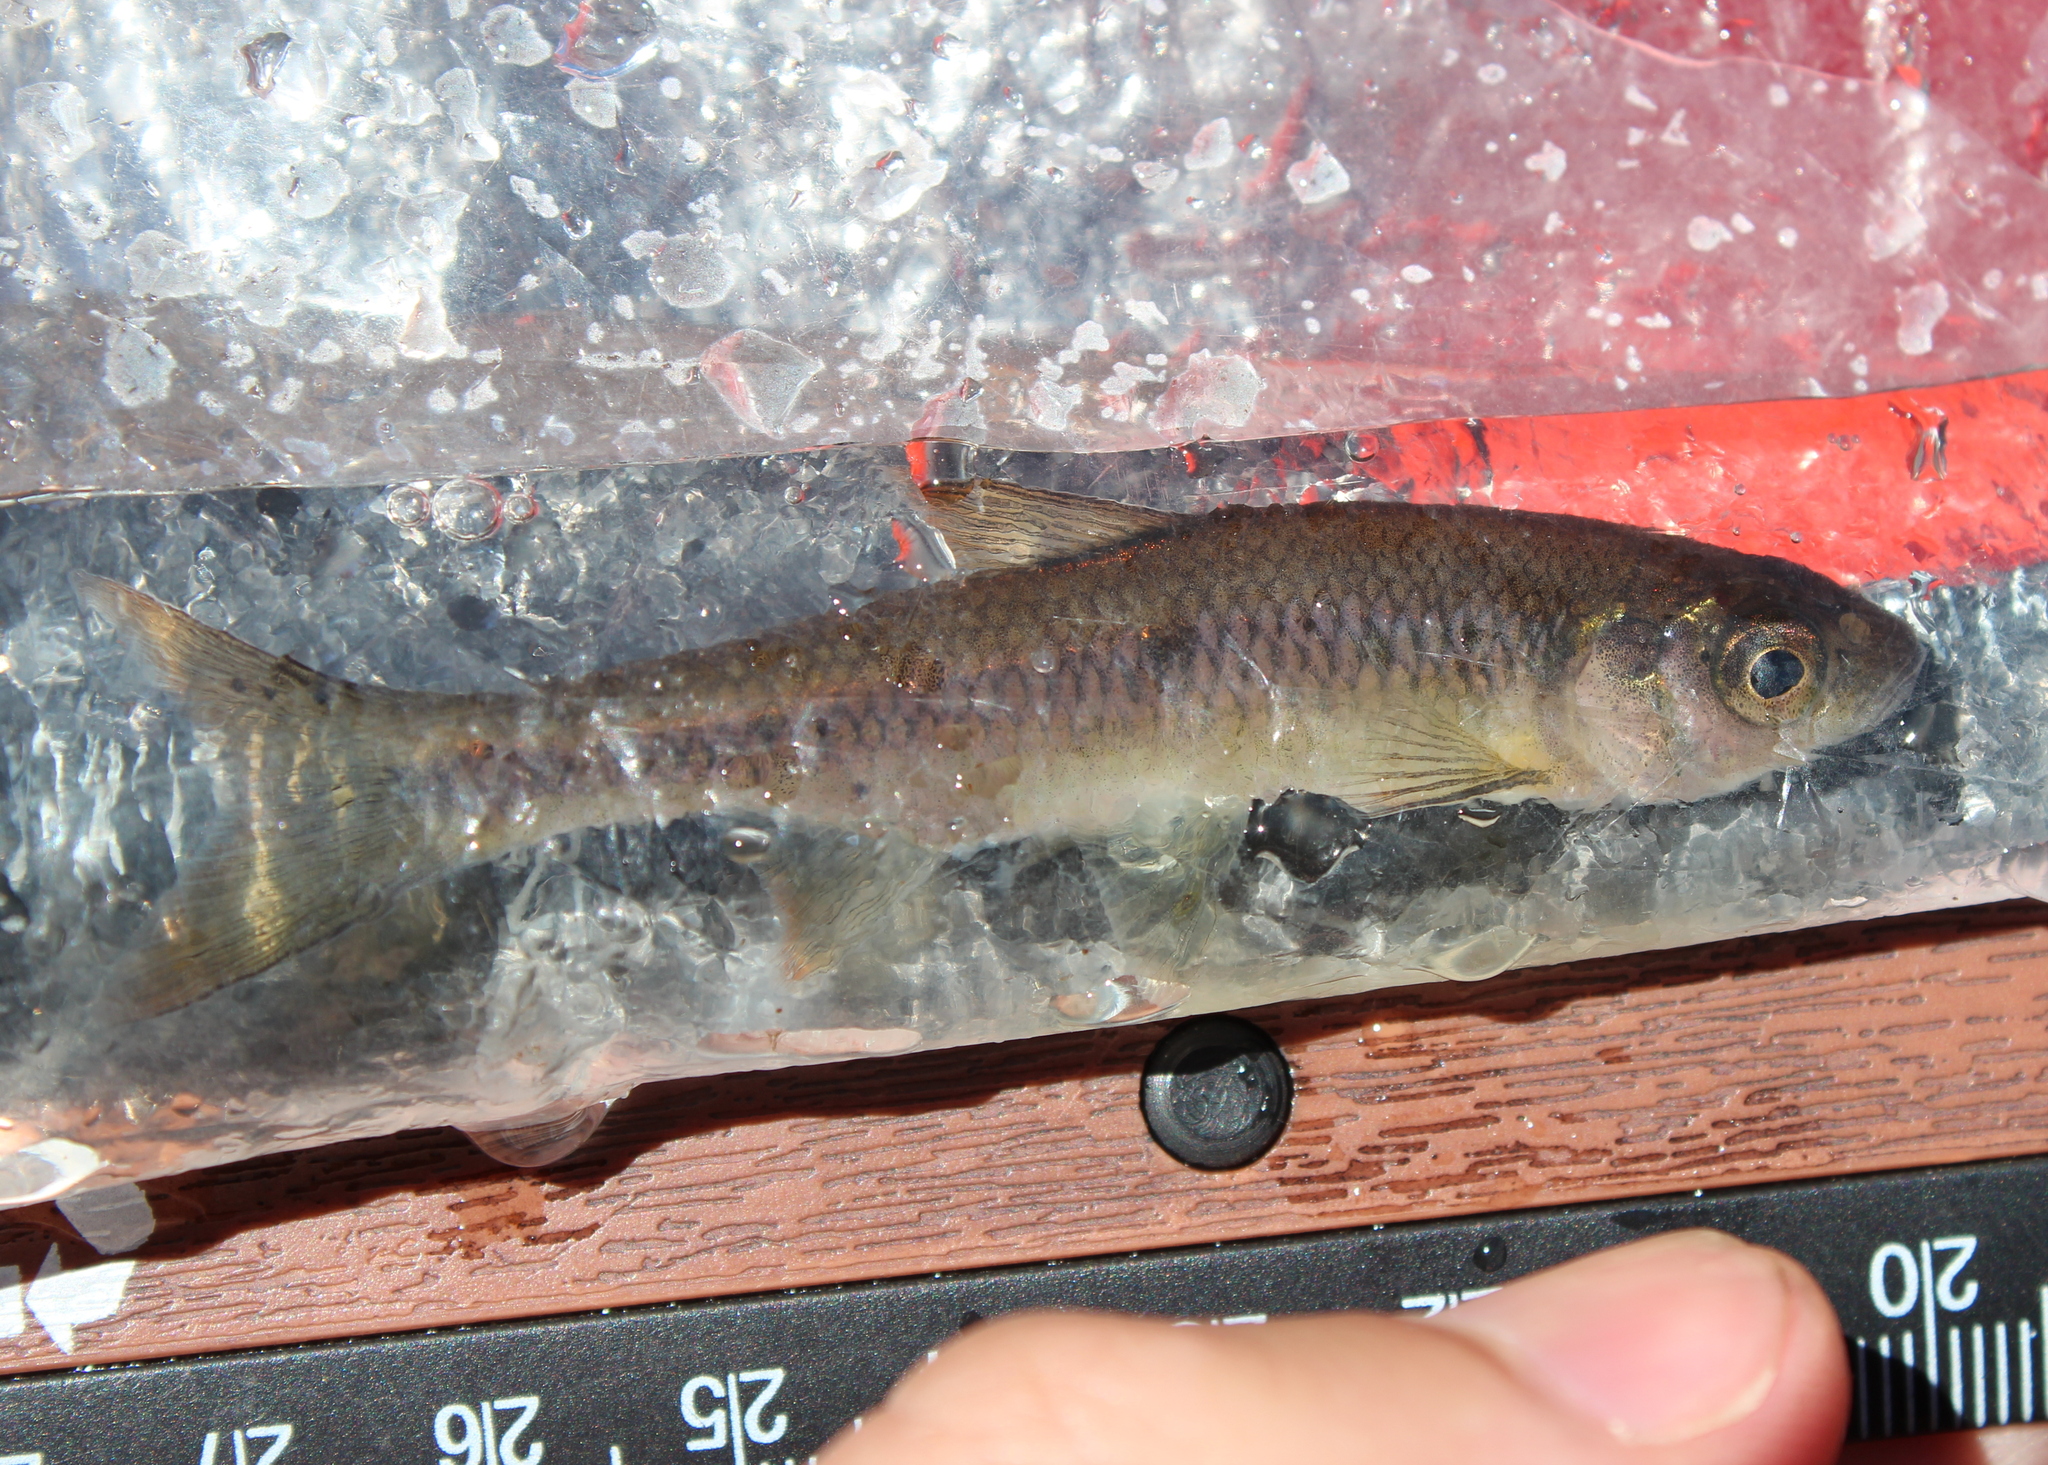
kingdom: Animalia
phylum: Chordata
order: Cypriniformes
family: Cyprinidae
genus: Luxilus
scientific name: Luxilus cornutus
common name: Common shiner
